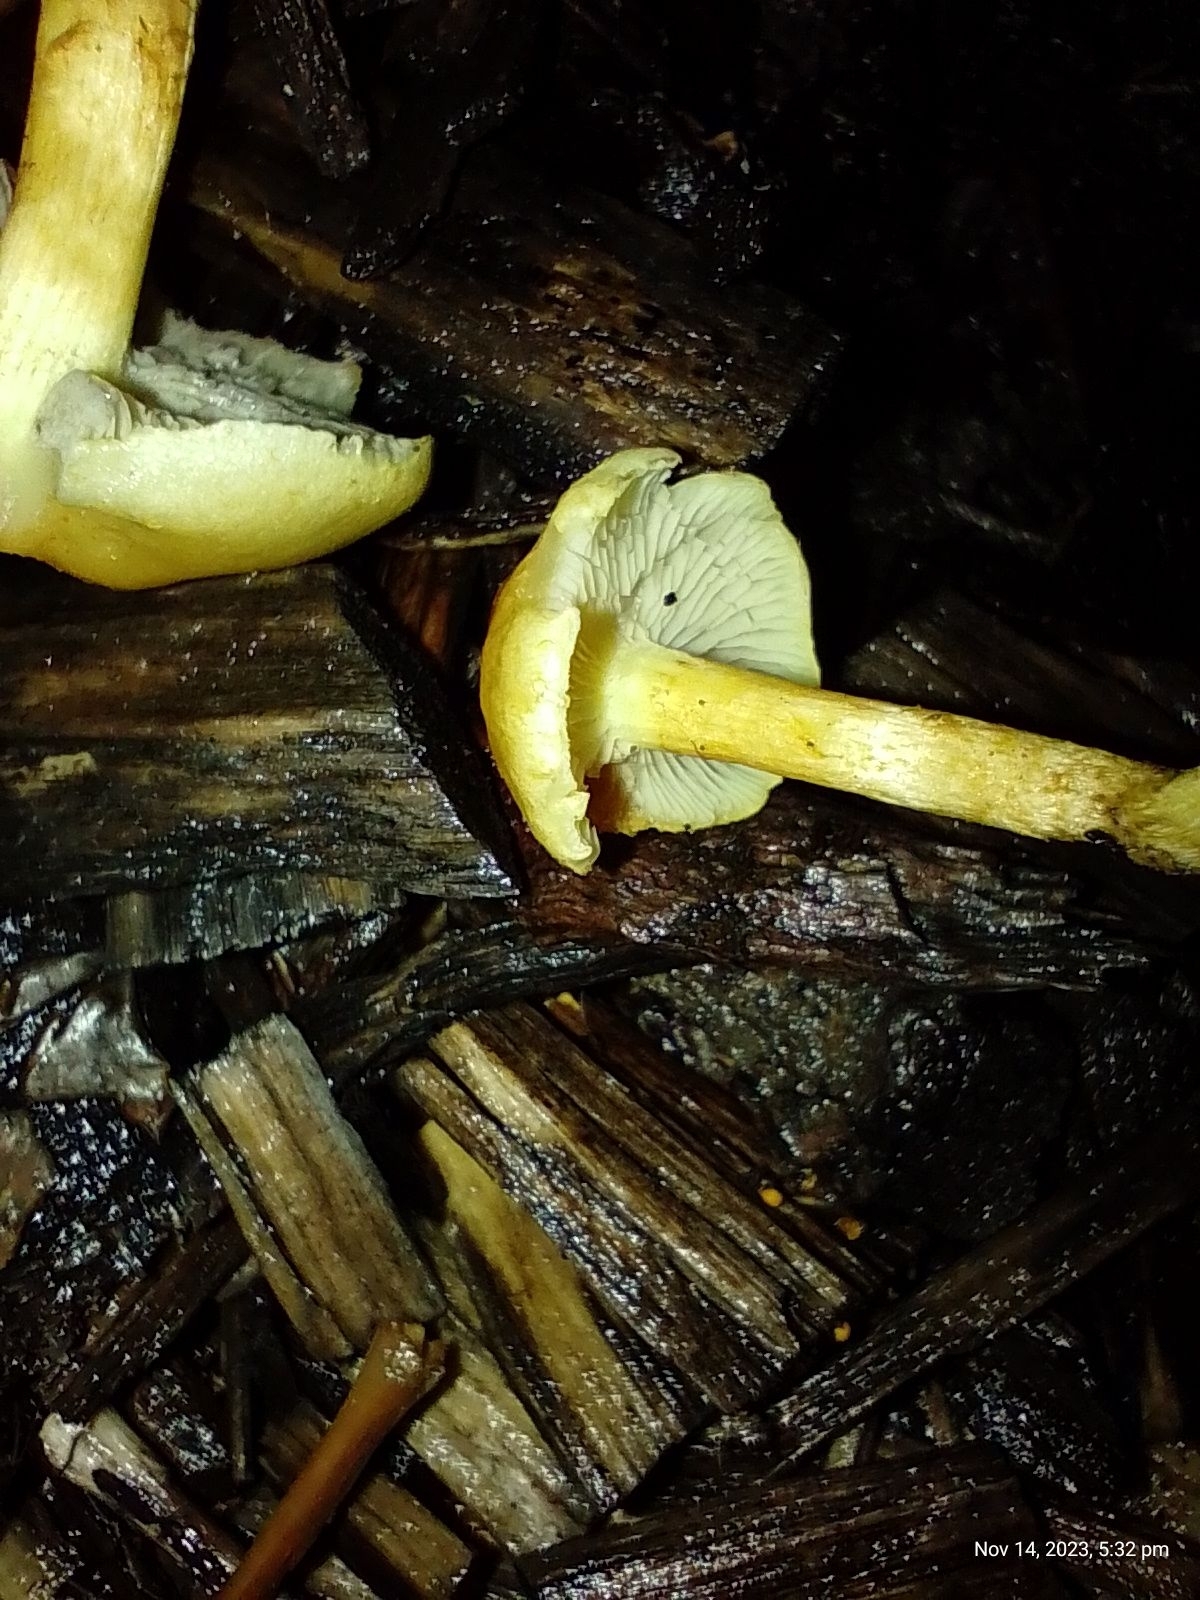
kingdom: Fungi
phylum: Basidiomycota
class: Agaricomycetes
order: Agaricales
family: Strophariaceae
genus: Hypholoma
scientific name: Hypholoma fasciculare
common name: Sulphur tuft
